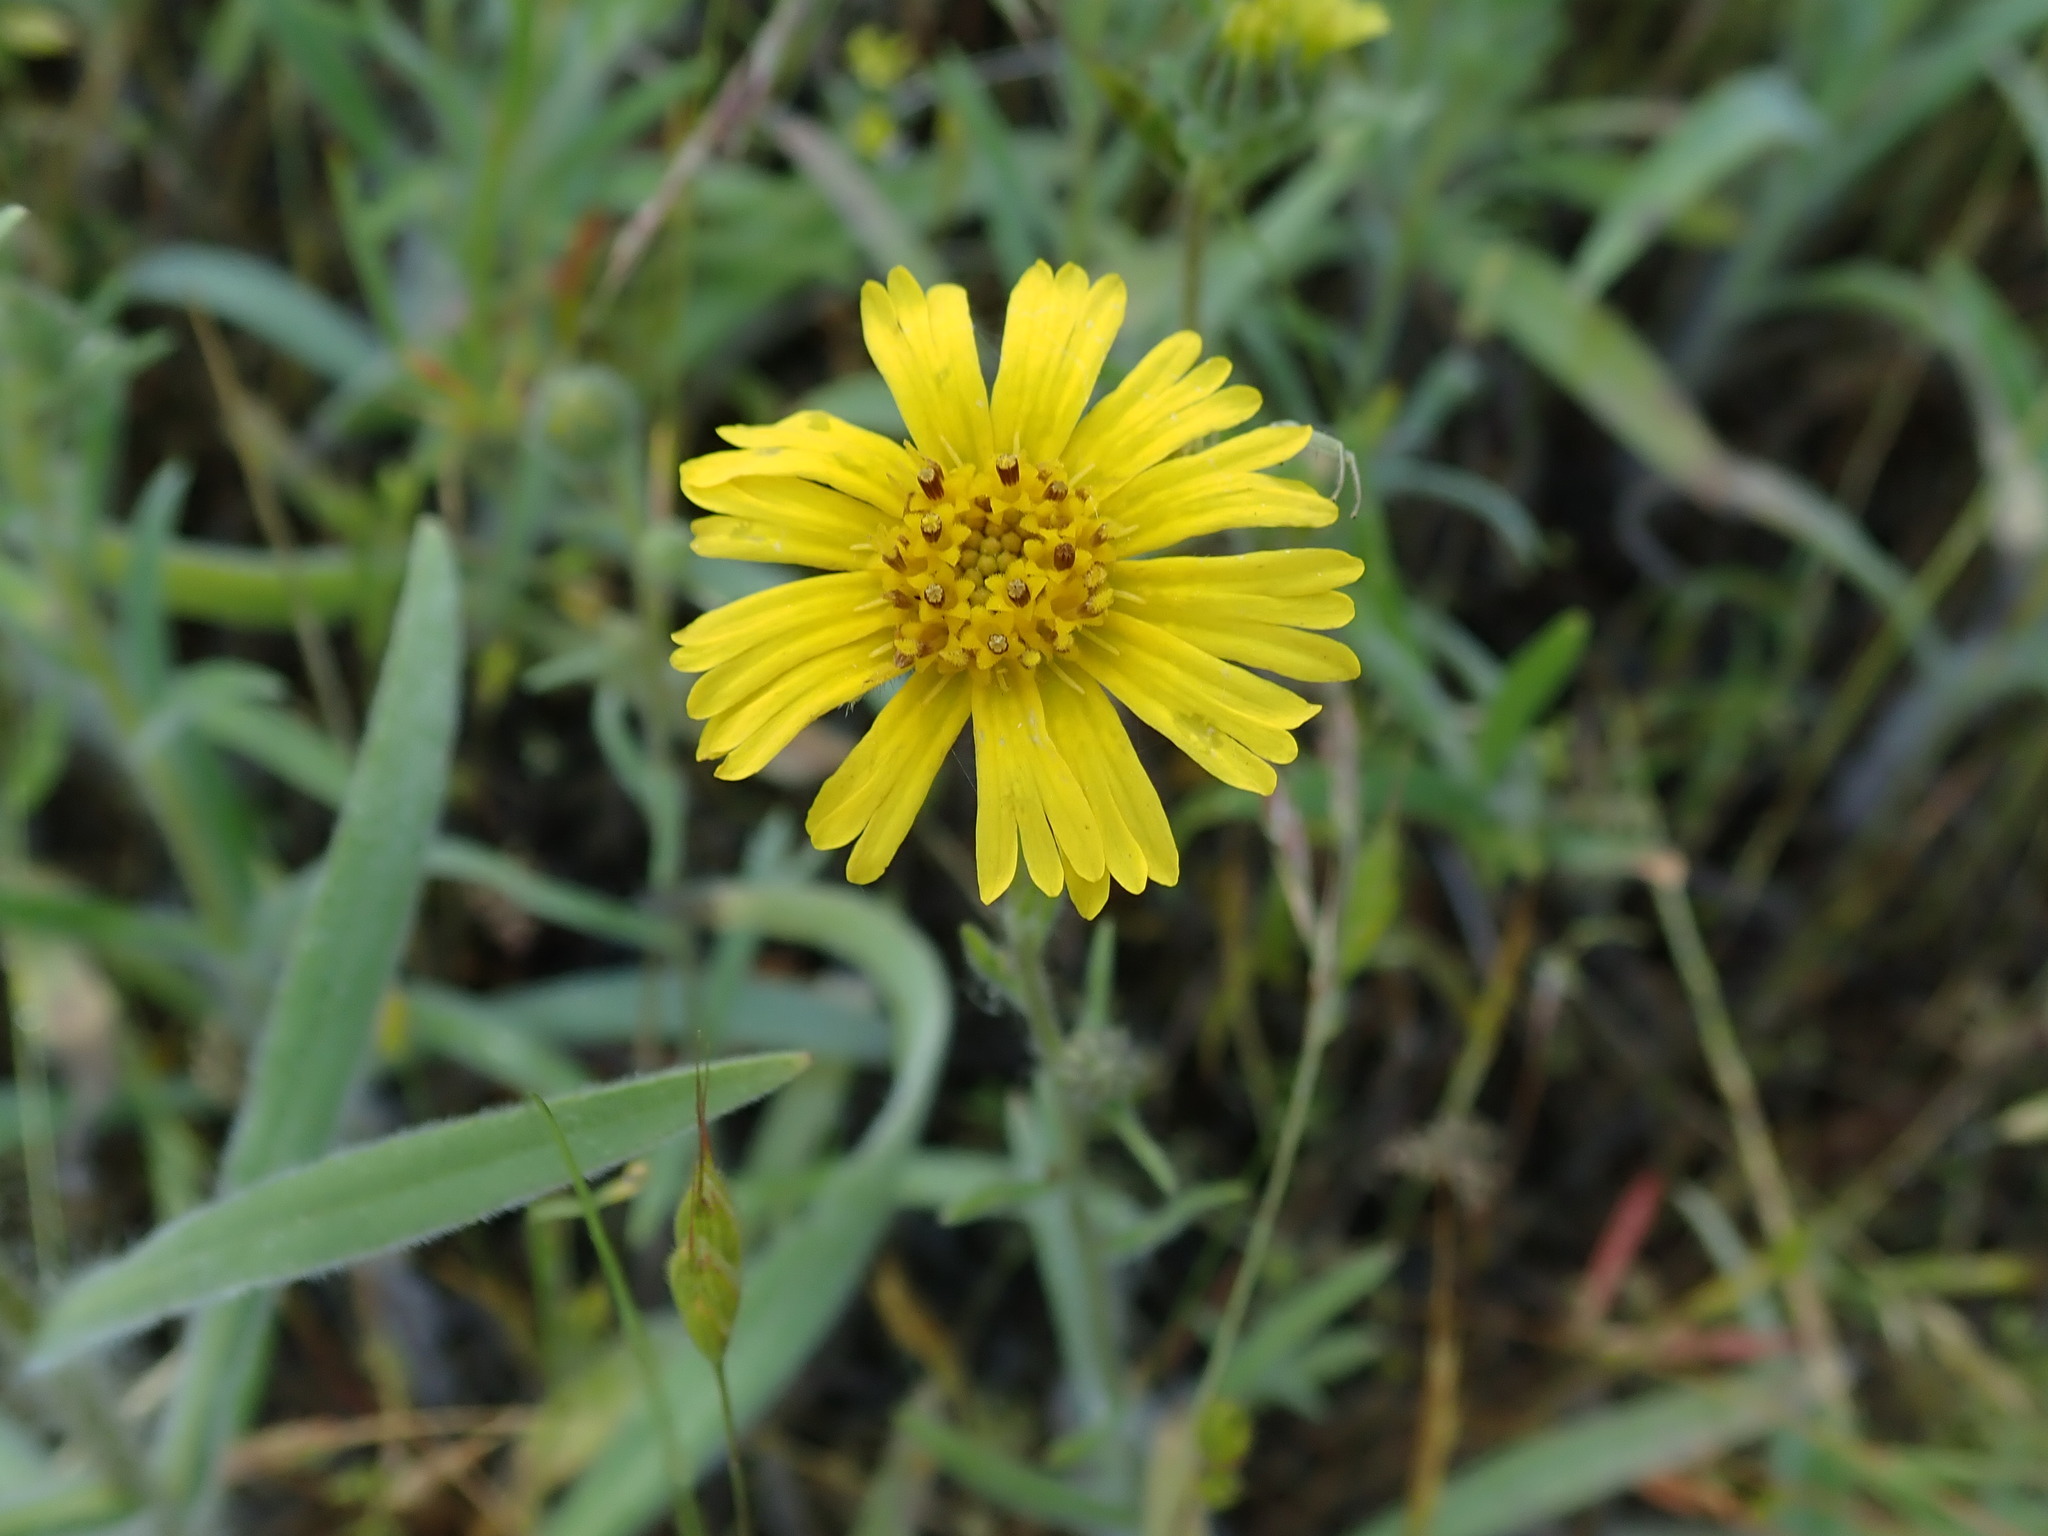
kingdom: Plantae
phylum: Tracheophyta
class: Magnoliopsida
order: Asterales
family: Asteraceae
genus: Madia
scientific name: Madia elegans
